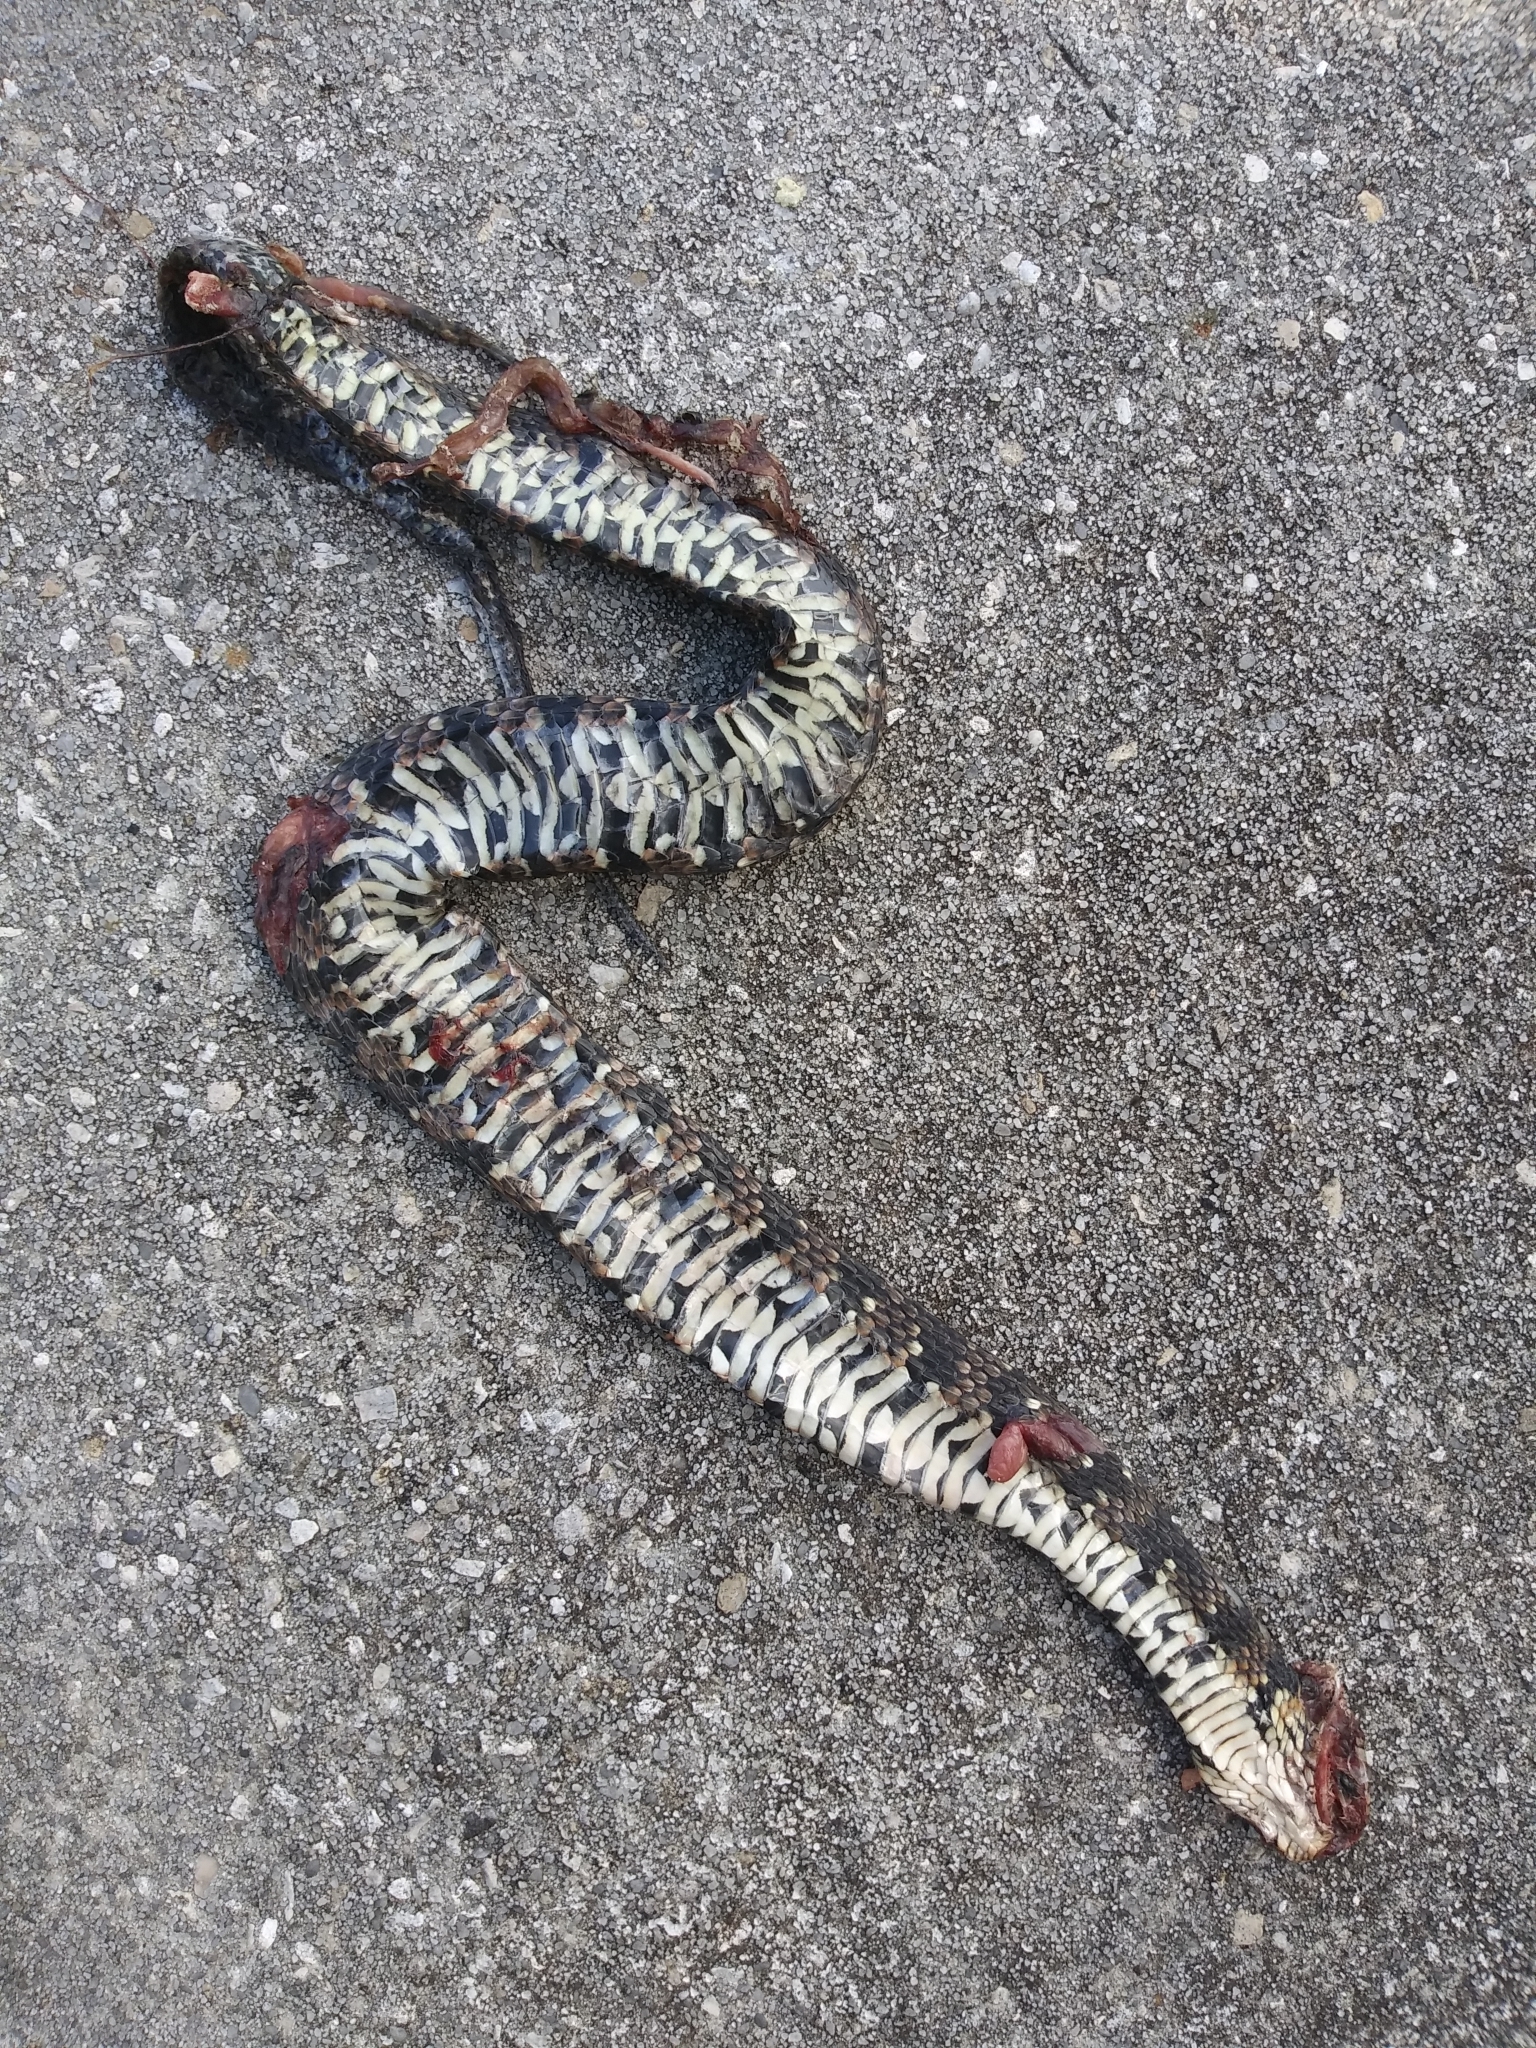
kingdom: Animalia
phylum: Chordata
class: Squamata
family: Colubridae
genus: Nerodia
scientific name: Nerodia fasciata
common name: Southern water snake
